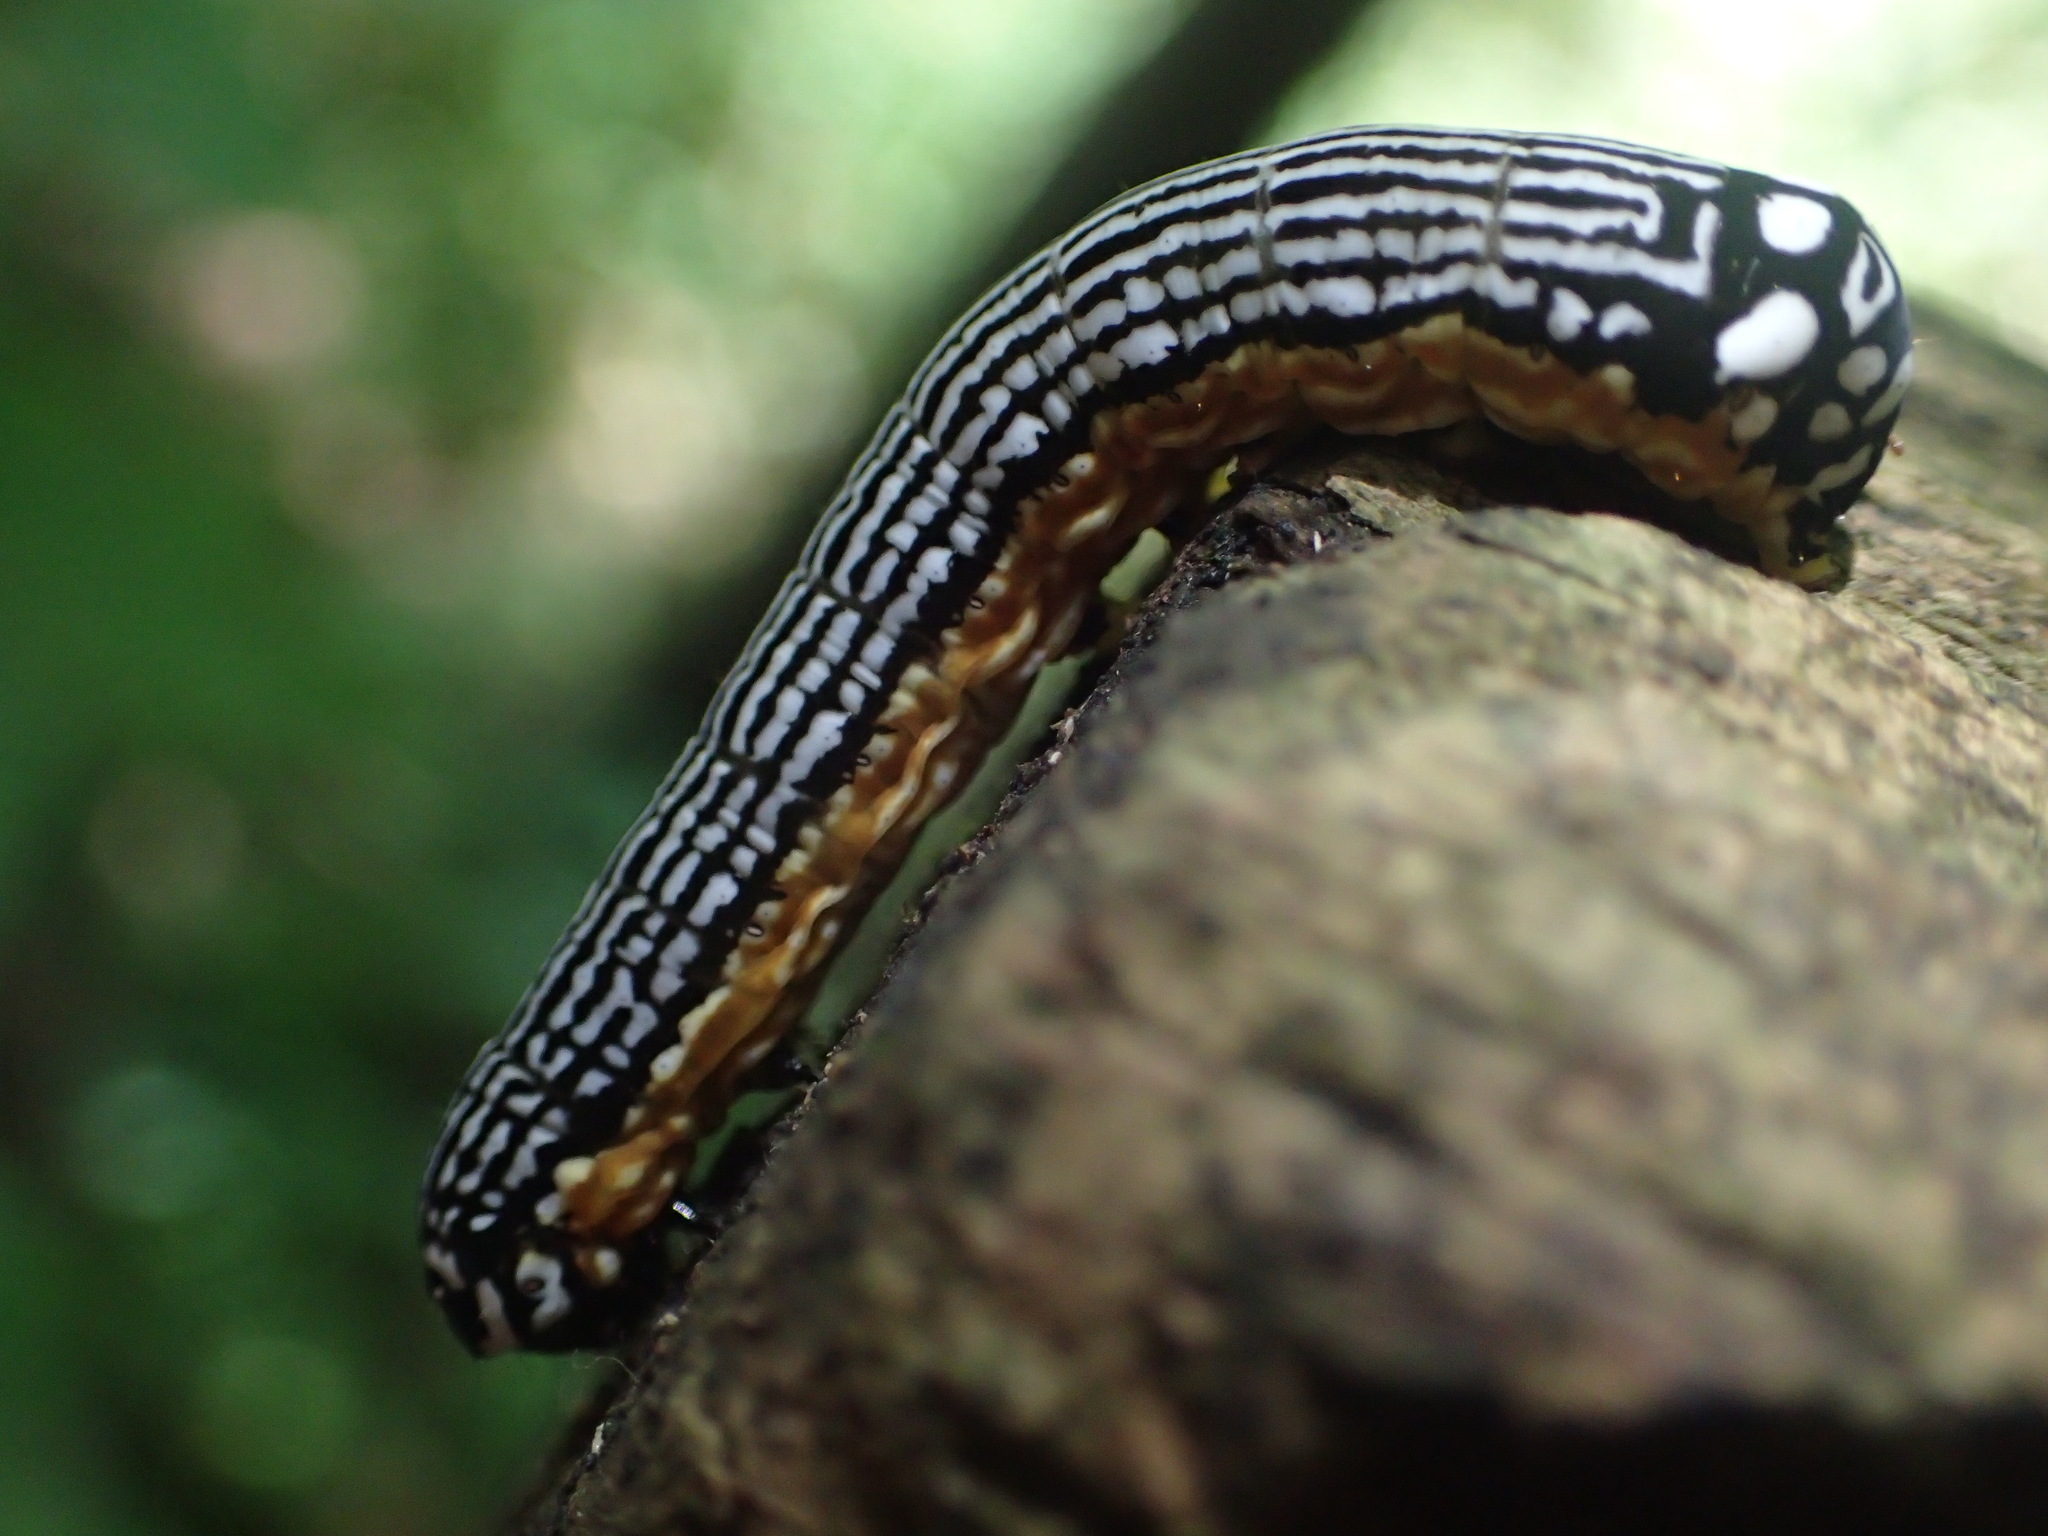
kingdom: Animalia
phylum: Arthropoda
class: Insecta
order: Lepidoptera
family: Noctuidae
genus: Phosphila
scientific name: Phosphila turbulenta
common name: Turbulent phosphila moth
